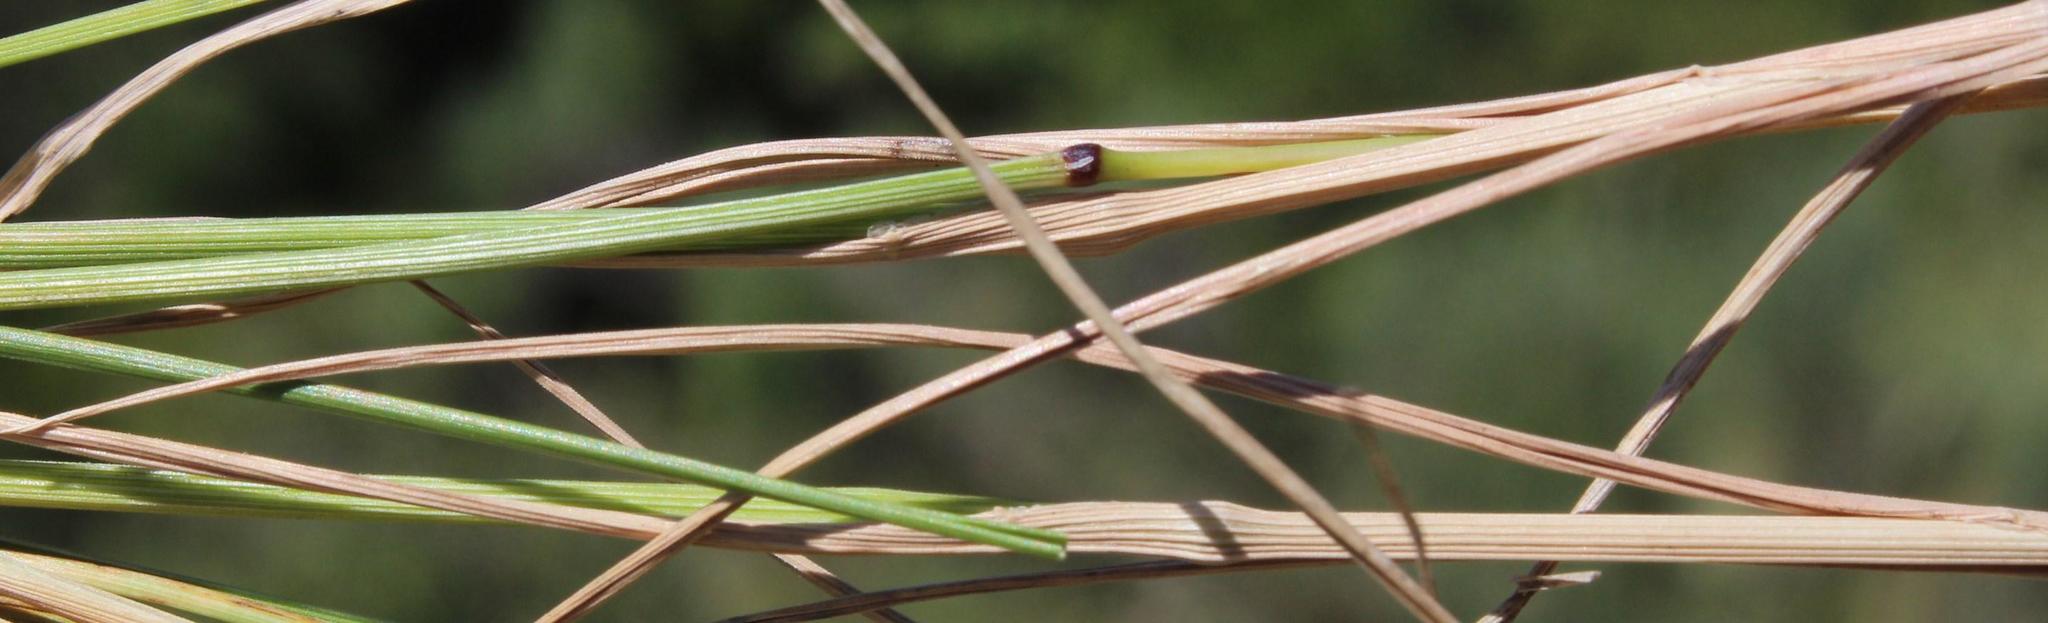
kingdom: Plantae
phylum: Tracheophyta
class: Liliopsida
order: Poales
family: Poaceae
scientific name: Poaceae
